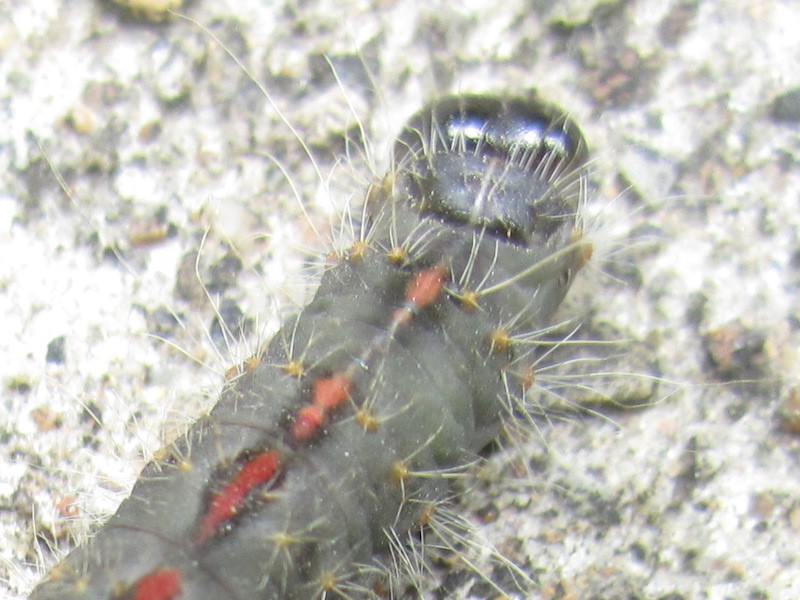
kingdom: Animalia
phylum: Arthropoda
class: Insecta
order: Lepidoptera
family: Noctuidae
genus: Acronicta
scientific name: Acronicta hasta
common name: Cherry dagger
